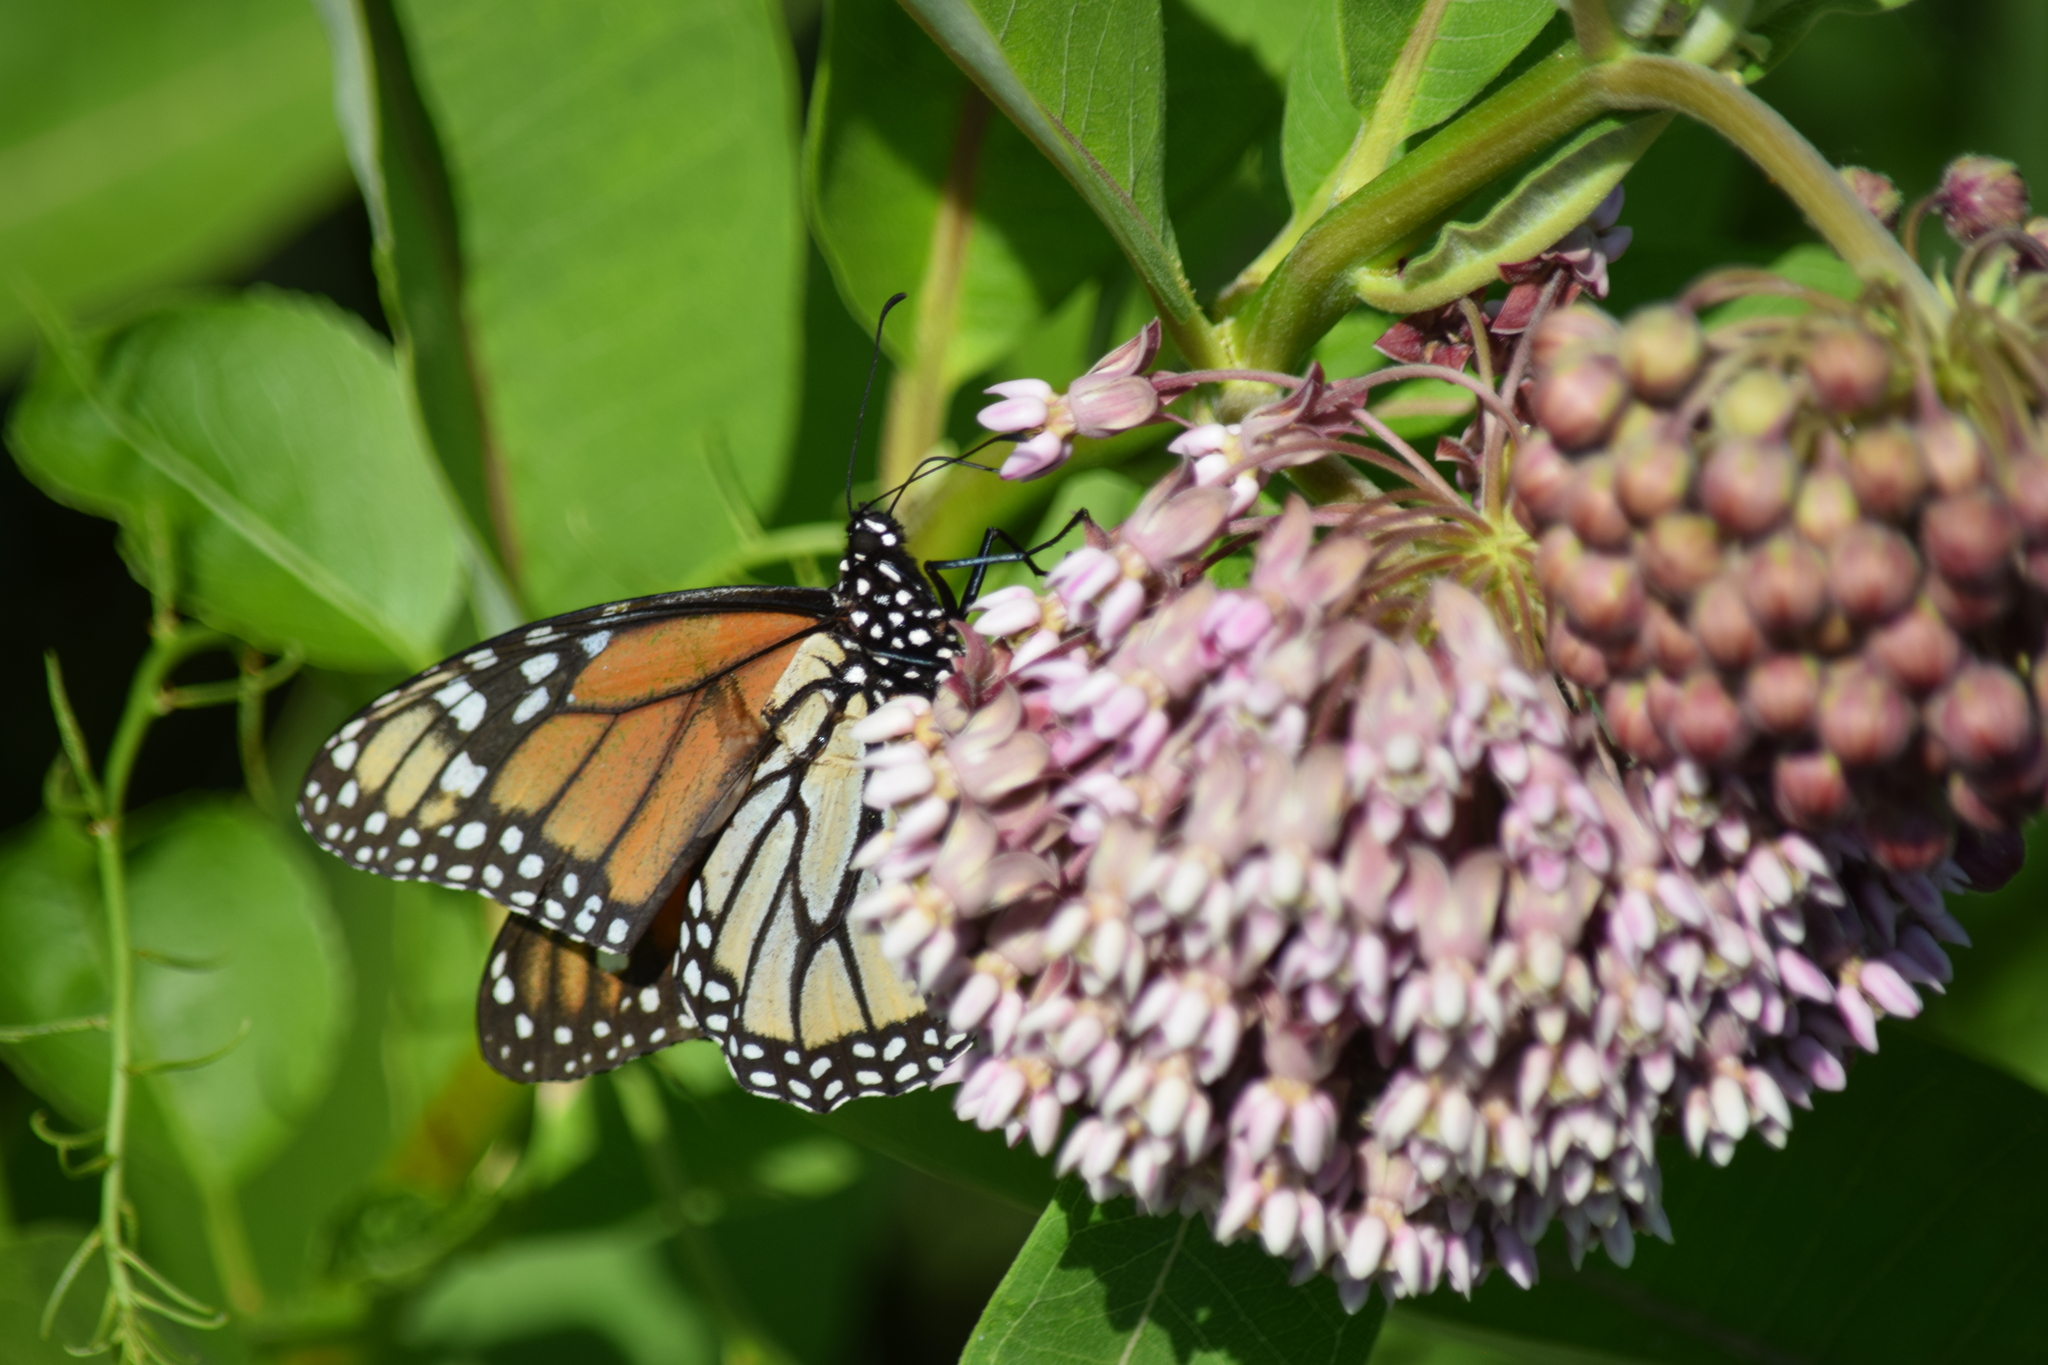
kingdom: Animalia
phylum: Arthropoda
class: Insecta
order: Lepidoptera
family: Nymphalidae
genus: Danaus
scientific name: Danaus plexippus
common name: Monarch
